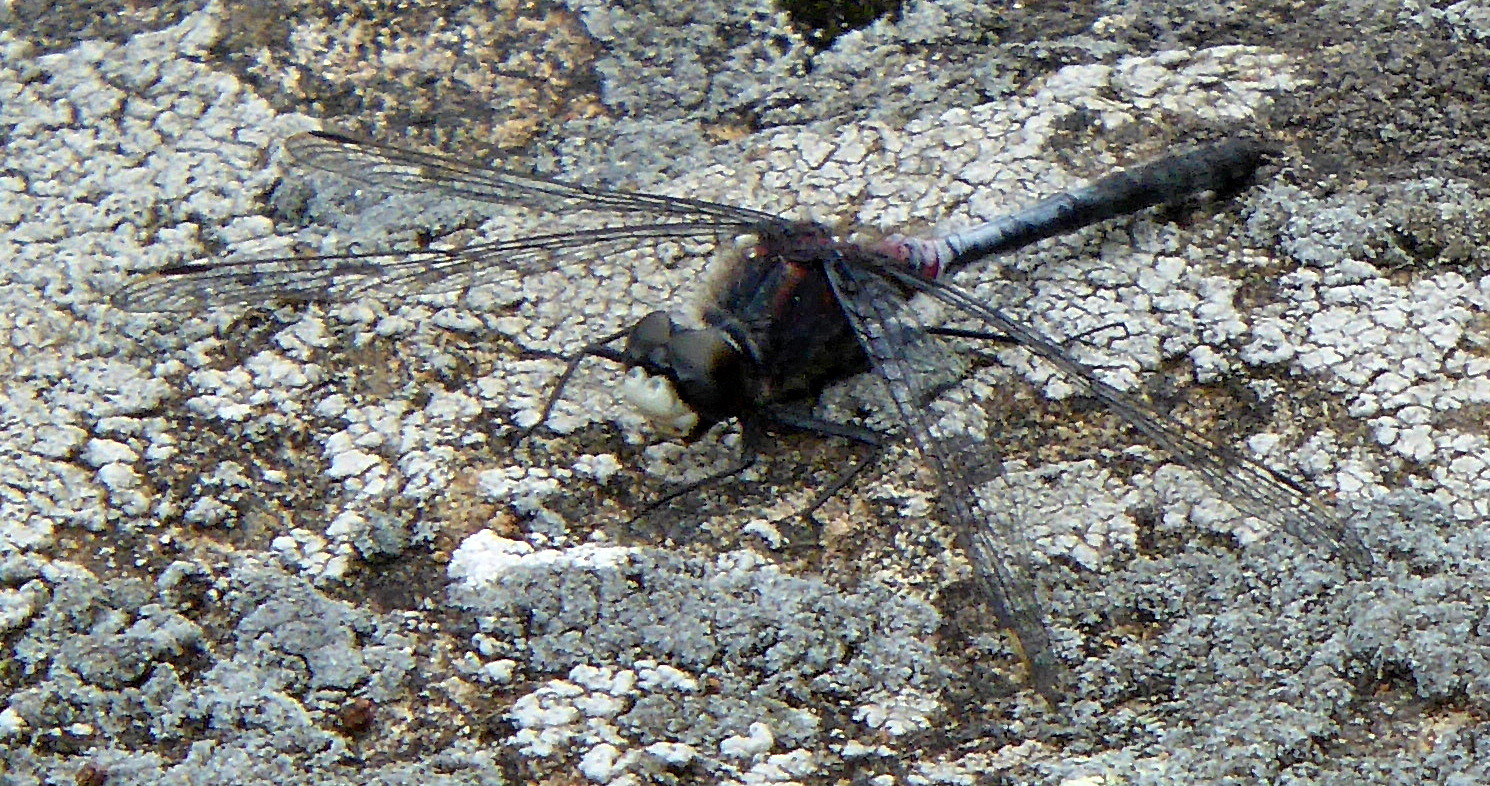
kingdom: Animalia
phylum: Arthropoda
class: Insecta
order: Odonata
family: Libellulidae
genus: Leucorrhinia
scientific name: Leucorrhinia proxima
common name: Belted whiteface
